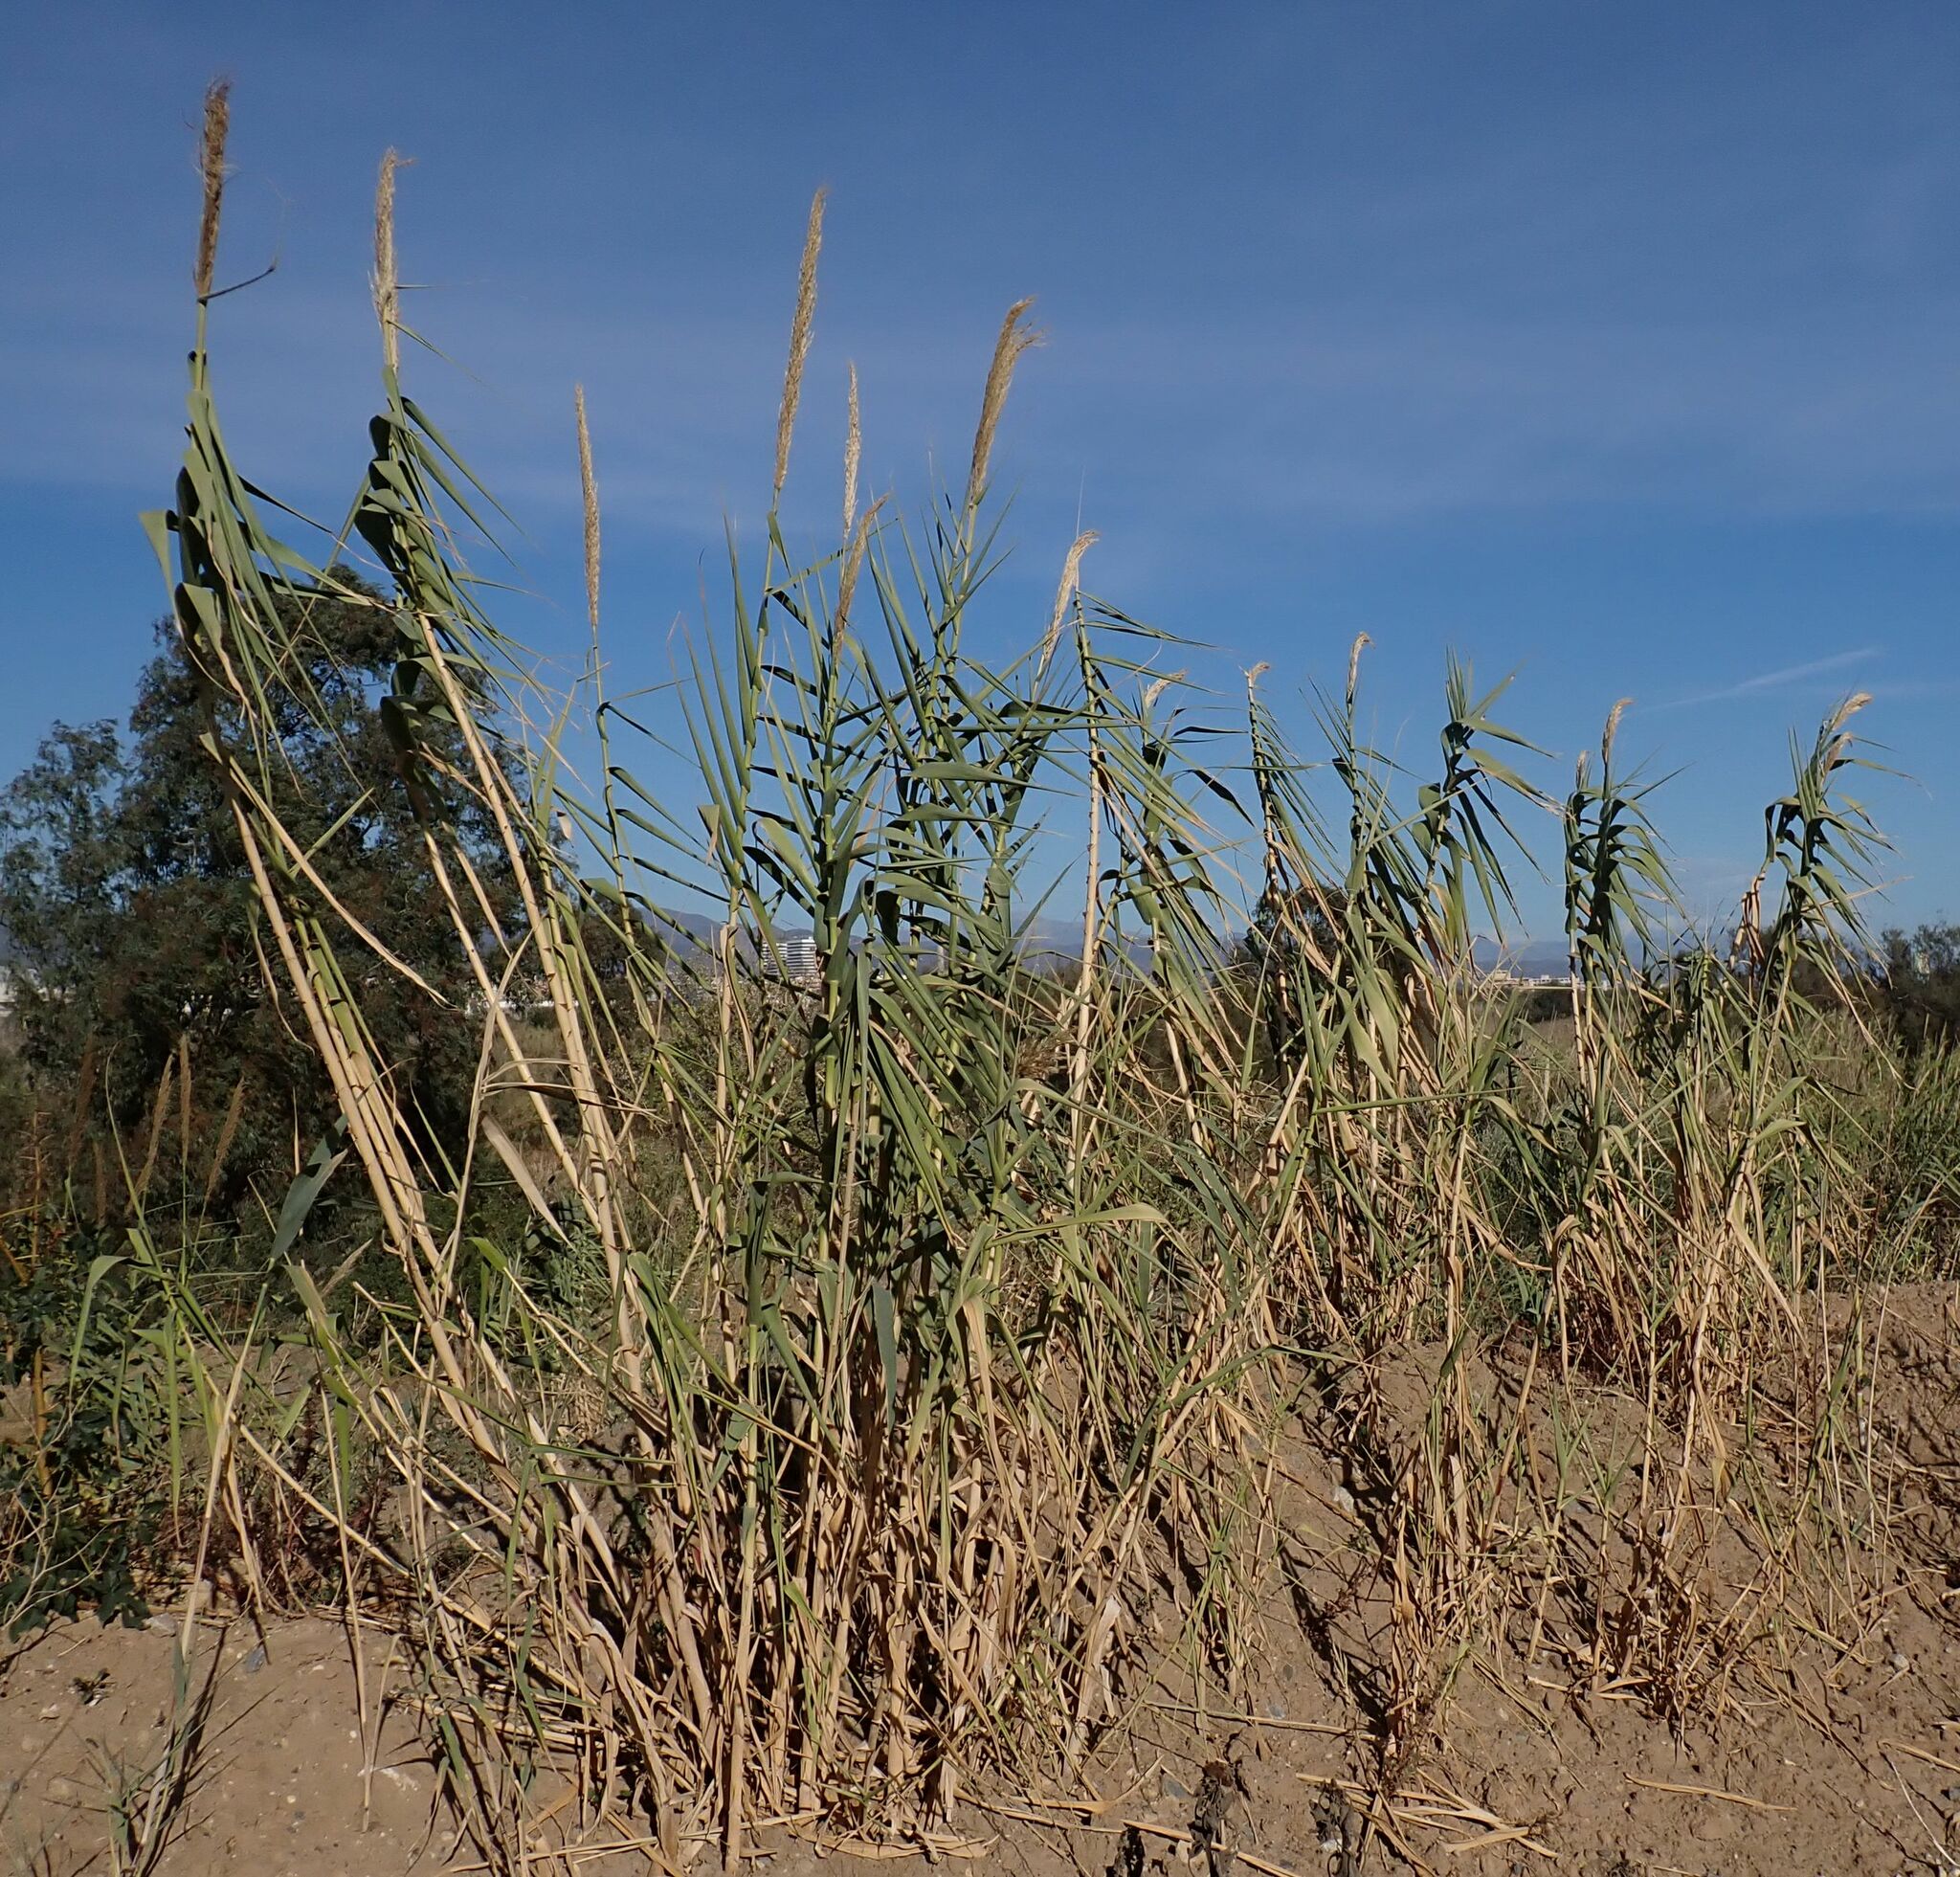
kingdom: Plantae
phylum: Tracheophyta
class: Liliopsida
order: Poales
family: Poaceae
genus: Arundo
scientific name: Arundo donax
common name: Giant reed
